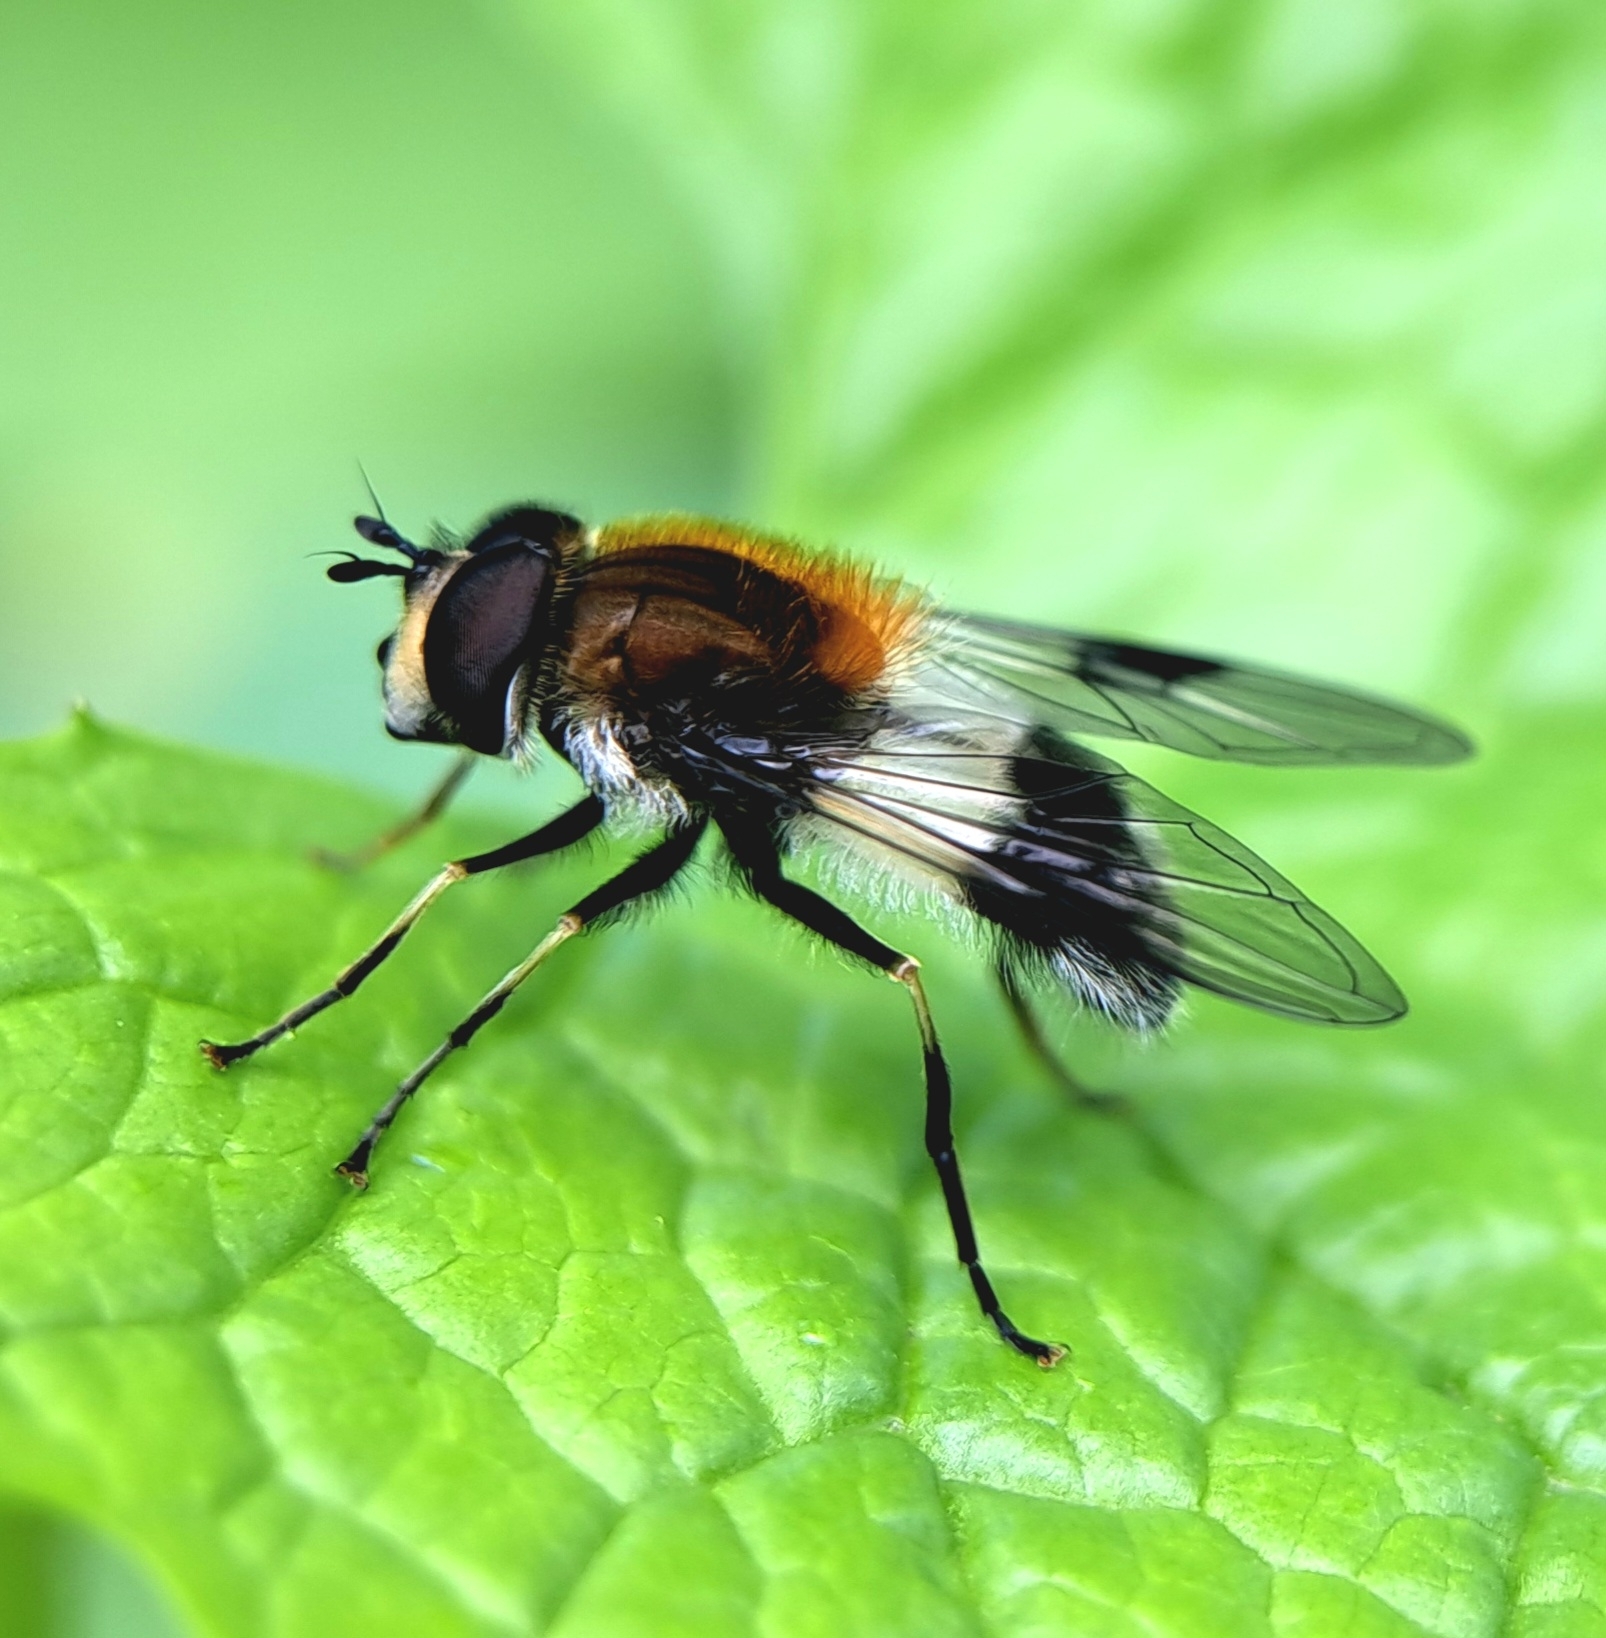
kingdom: Animalia
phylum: Arthropoda
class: Insecta
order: Diptera
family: Syrphidae
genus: Leucozona
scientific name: Leucozona lucorum
